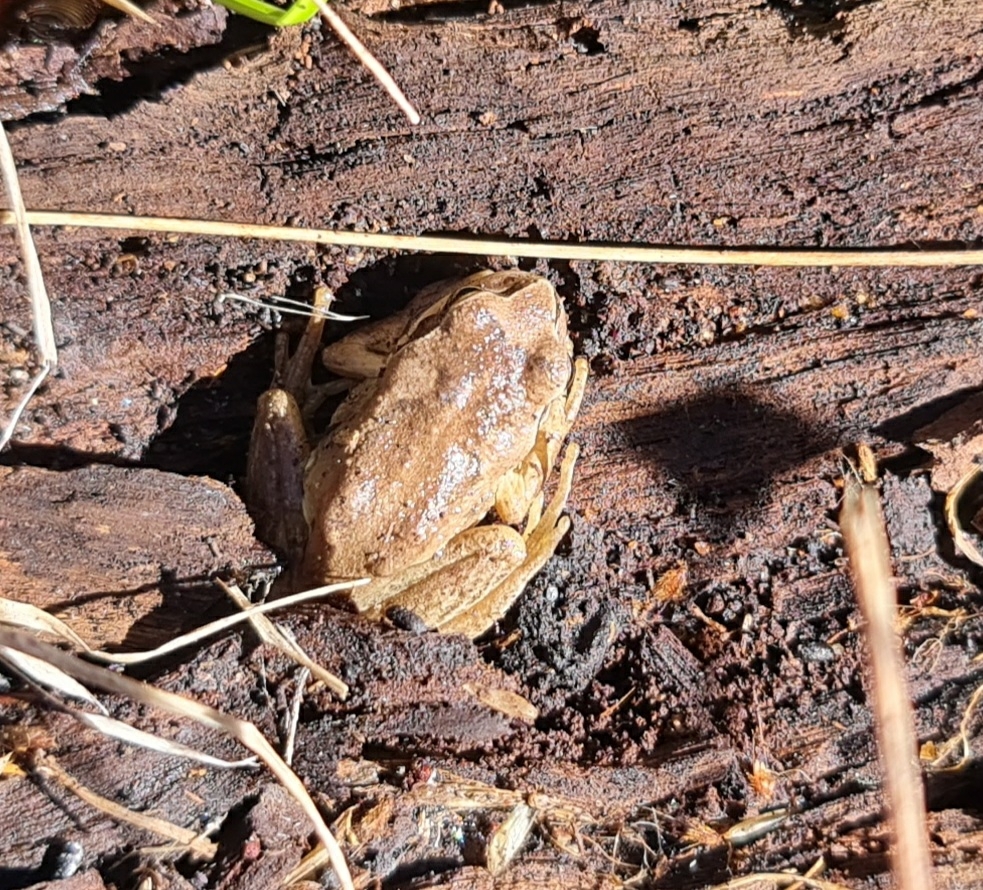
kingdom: Animalia
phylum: Chordata
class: Amphibia
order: Anura
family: Pelodryadidae
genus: Litoria
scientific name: Litoria verreauxii
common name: Alpine tree frog
